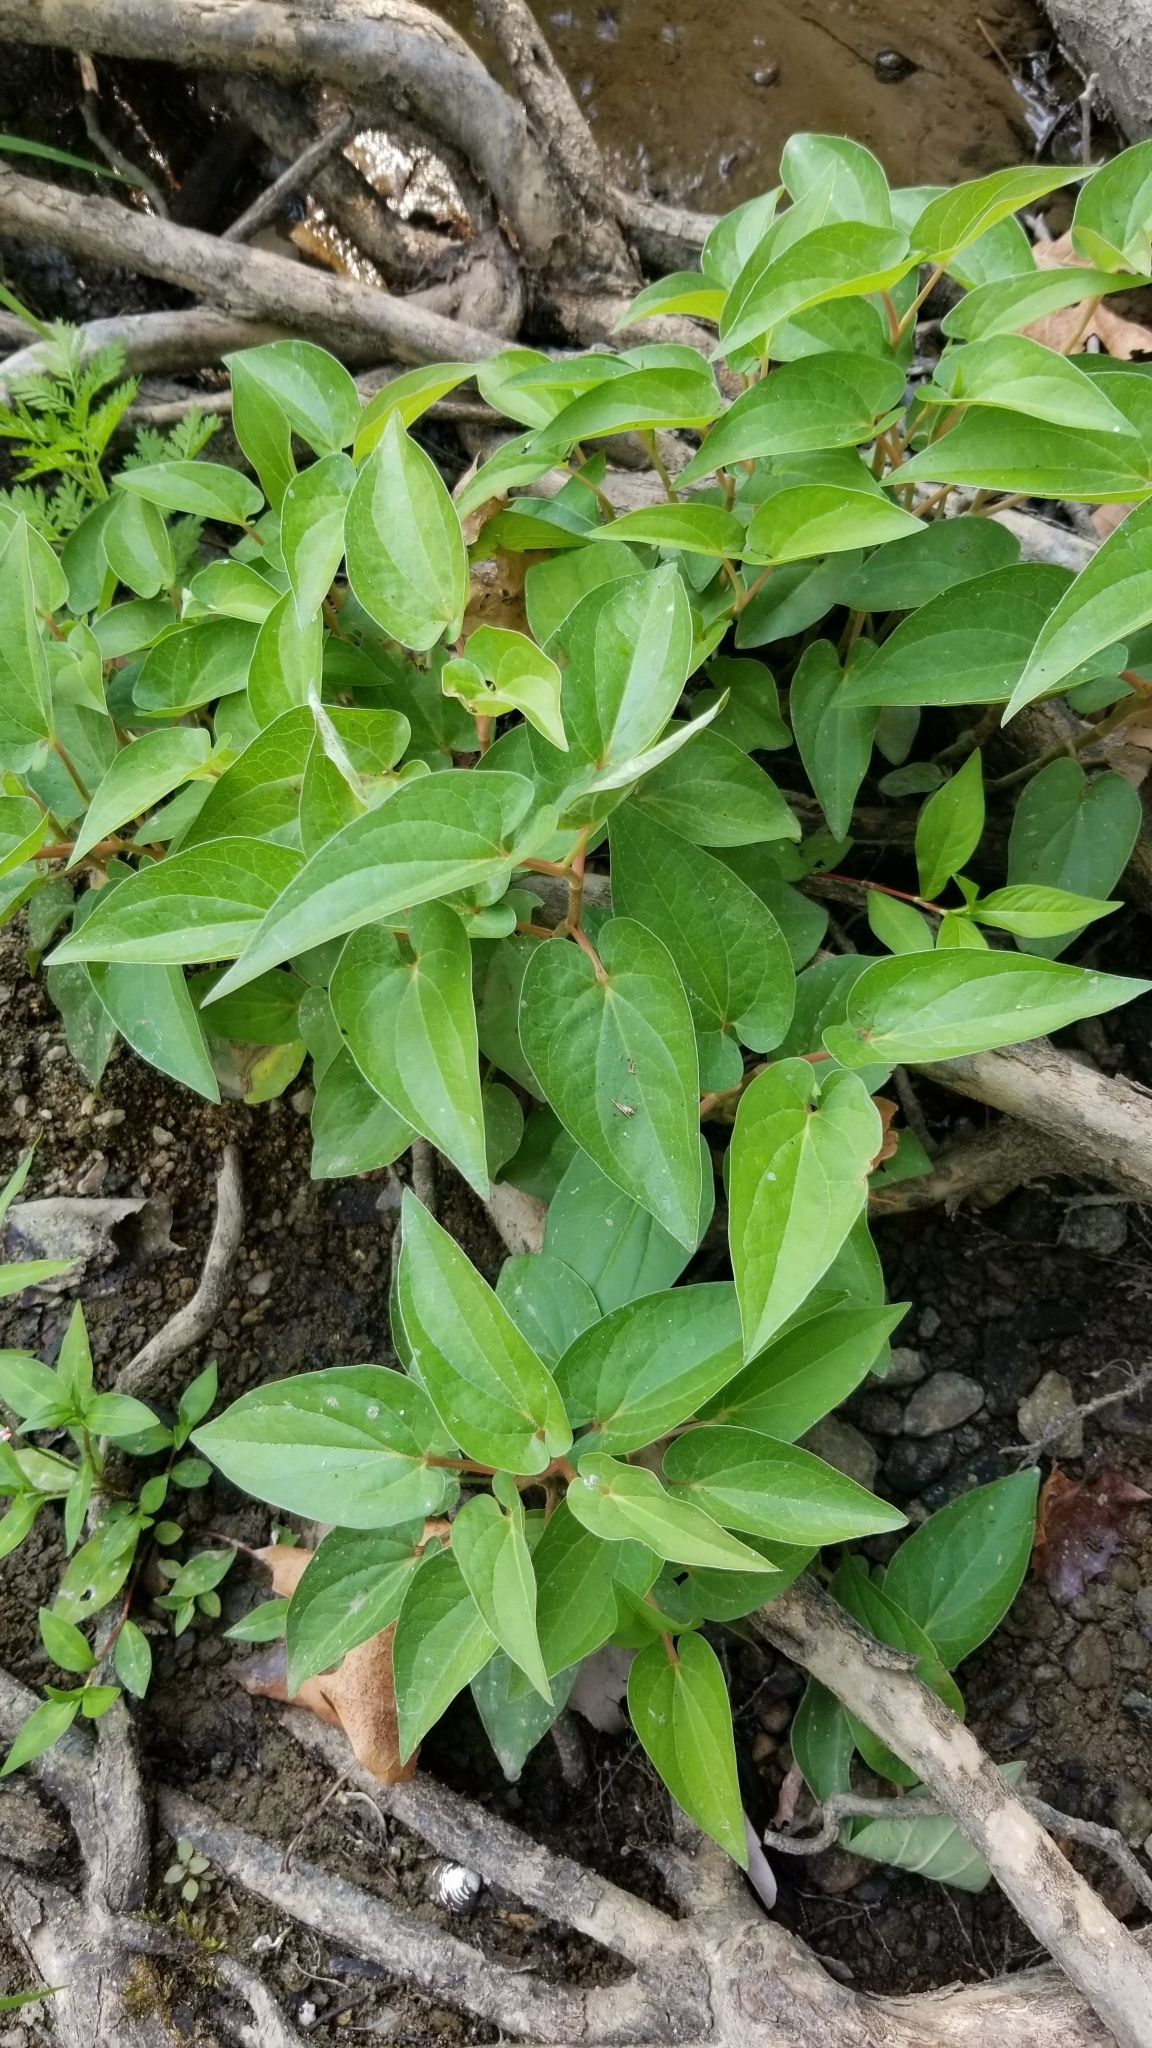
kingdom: Plantae
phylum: Tracheophyta
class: Magnoliopsida
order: Piperales
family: Saururaceae
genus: Saururus
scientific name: Saururus cernuus
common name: Lizard's-tail
